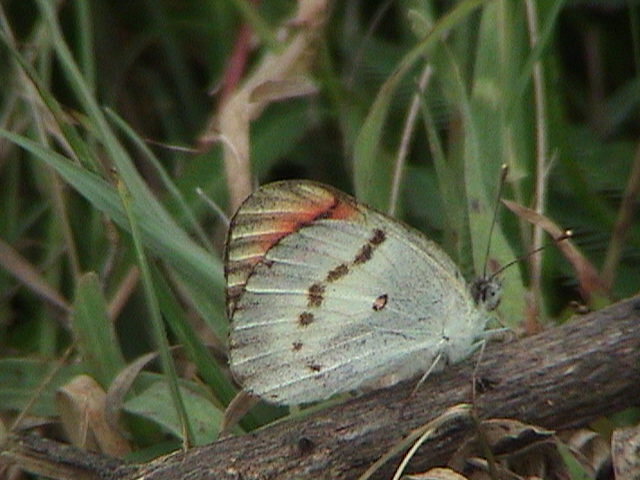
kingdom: Animalia
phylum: Arthropoda
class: Insecta
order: Lepidoptera
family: Pieridae
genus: Colotis
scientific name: Colotis danae
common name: Crimson tip
